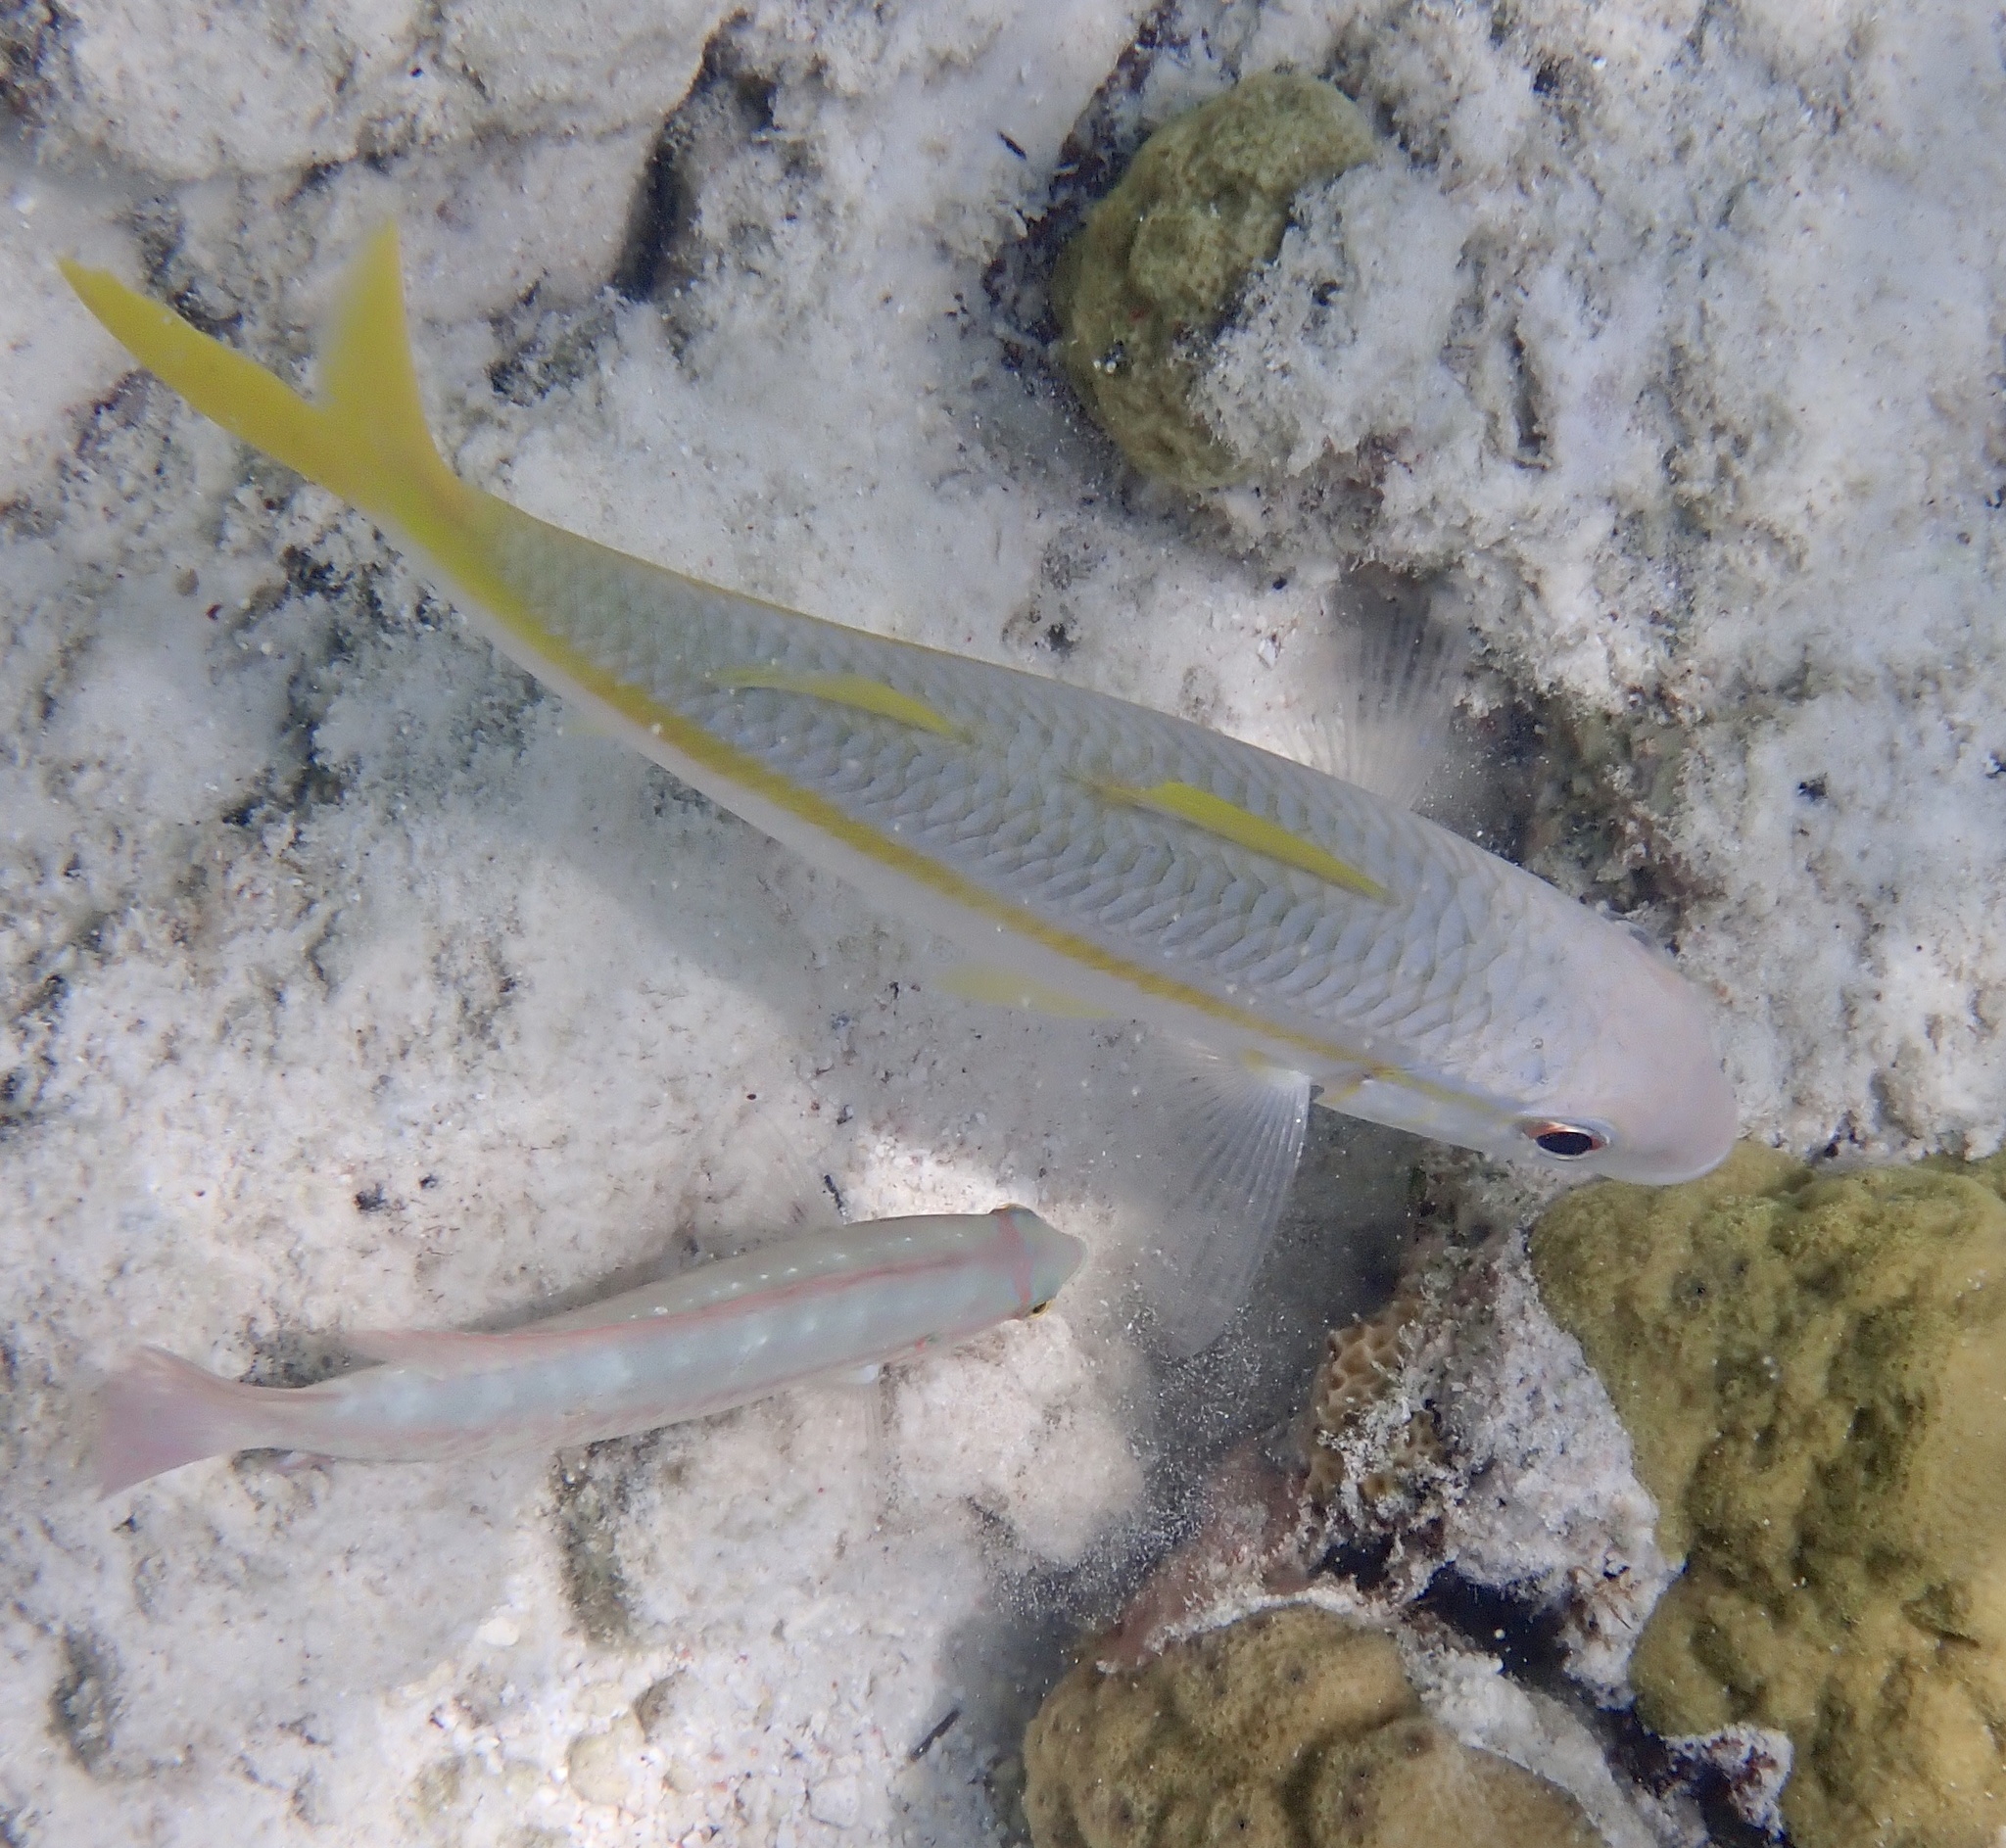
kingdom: Animalia
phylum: Chordata
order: Perciformes
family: Mullidae
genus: Mulloidichthys
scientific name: Mulloidichthys martinicus
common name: Yellow goatfish
